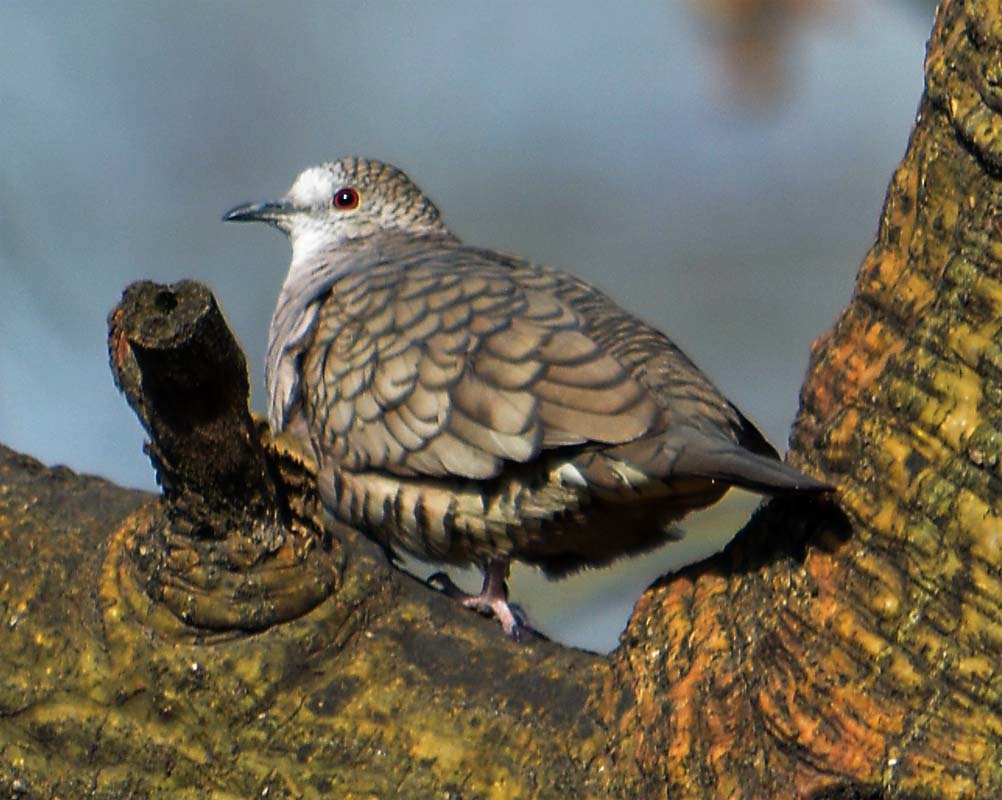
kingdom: Animalia
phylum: Chordata
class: Aves
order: Columbiformes
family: Columbidae
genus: Columbina
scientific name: Columbina inca
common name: Inca dove
